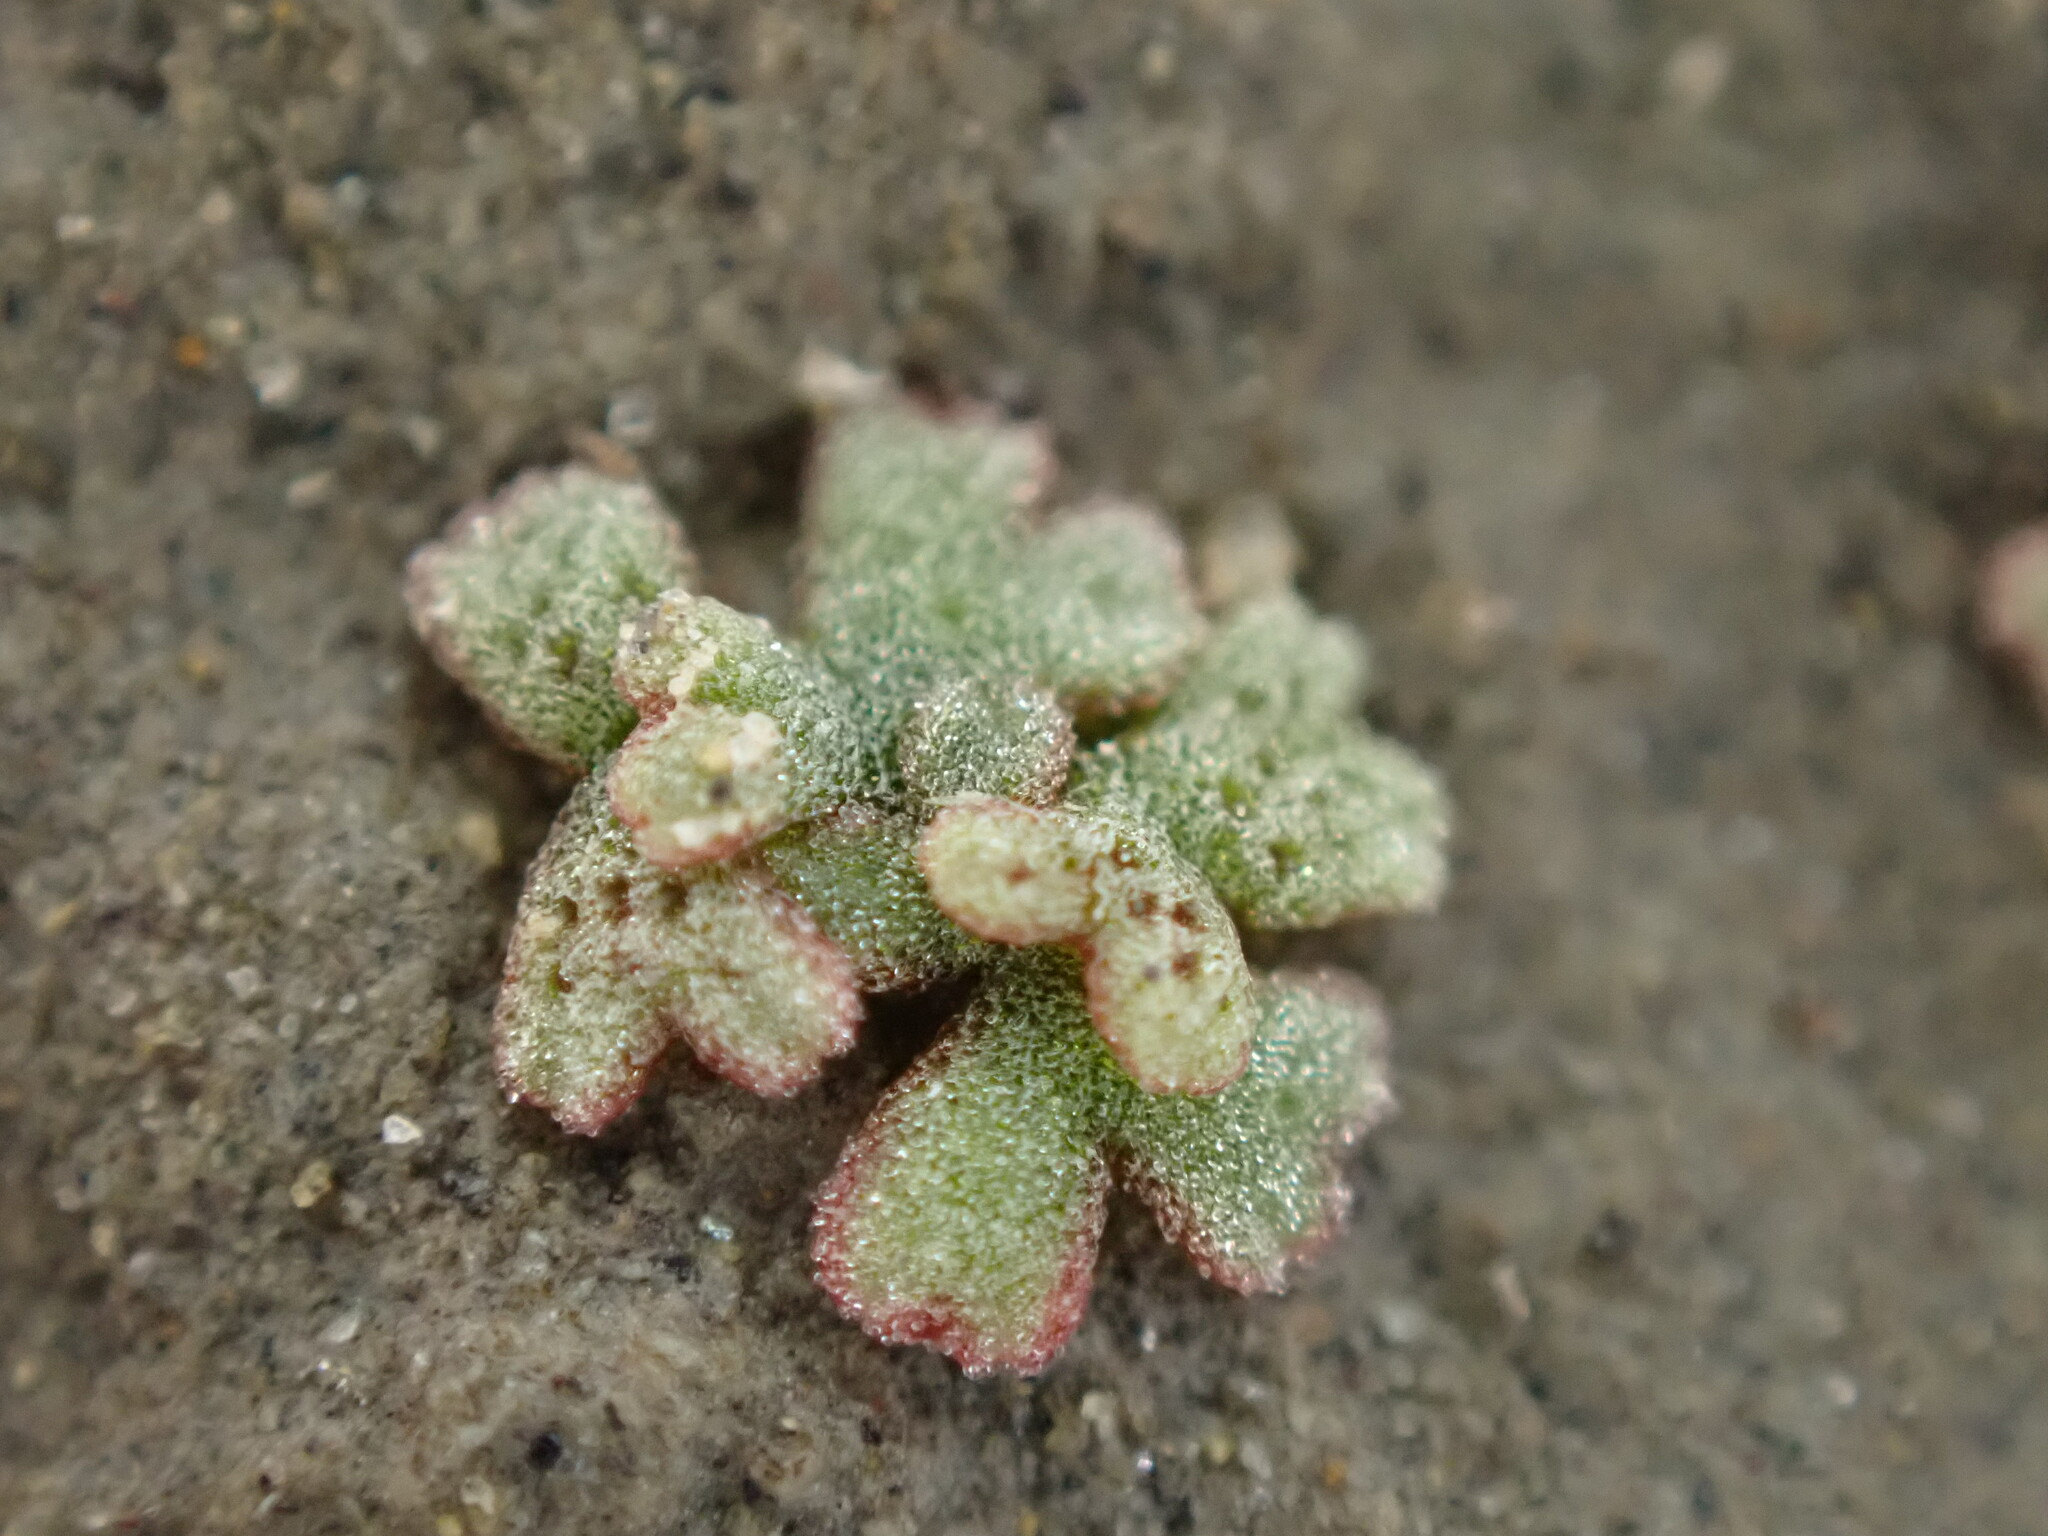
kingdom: Plantae
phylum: Marchantiophyta
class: Marchantiopsida
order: Marchantiales
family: Ricciaceae
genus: Riccia
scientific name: Riccia frostii
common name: Frost s crystalwort
